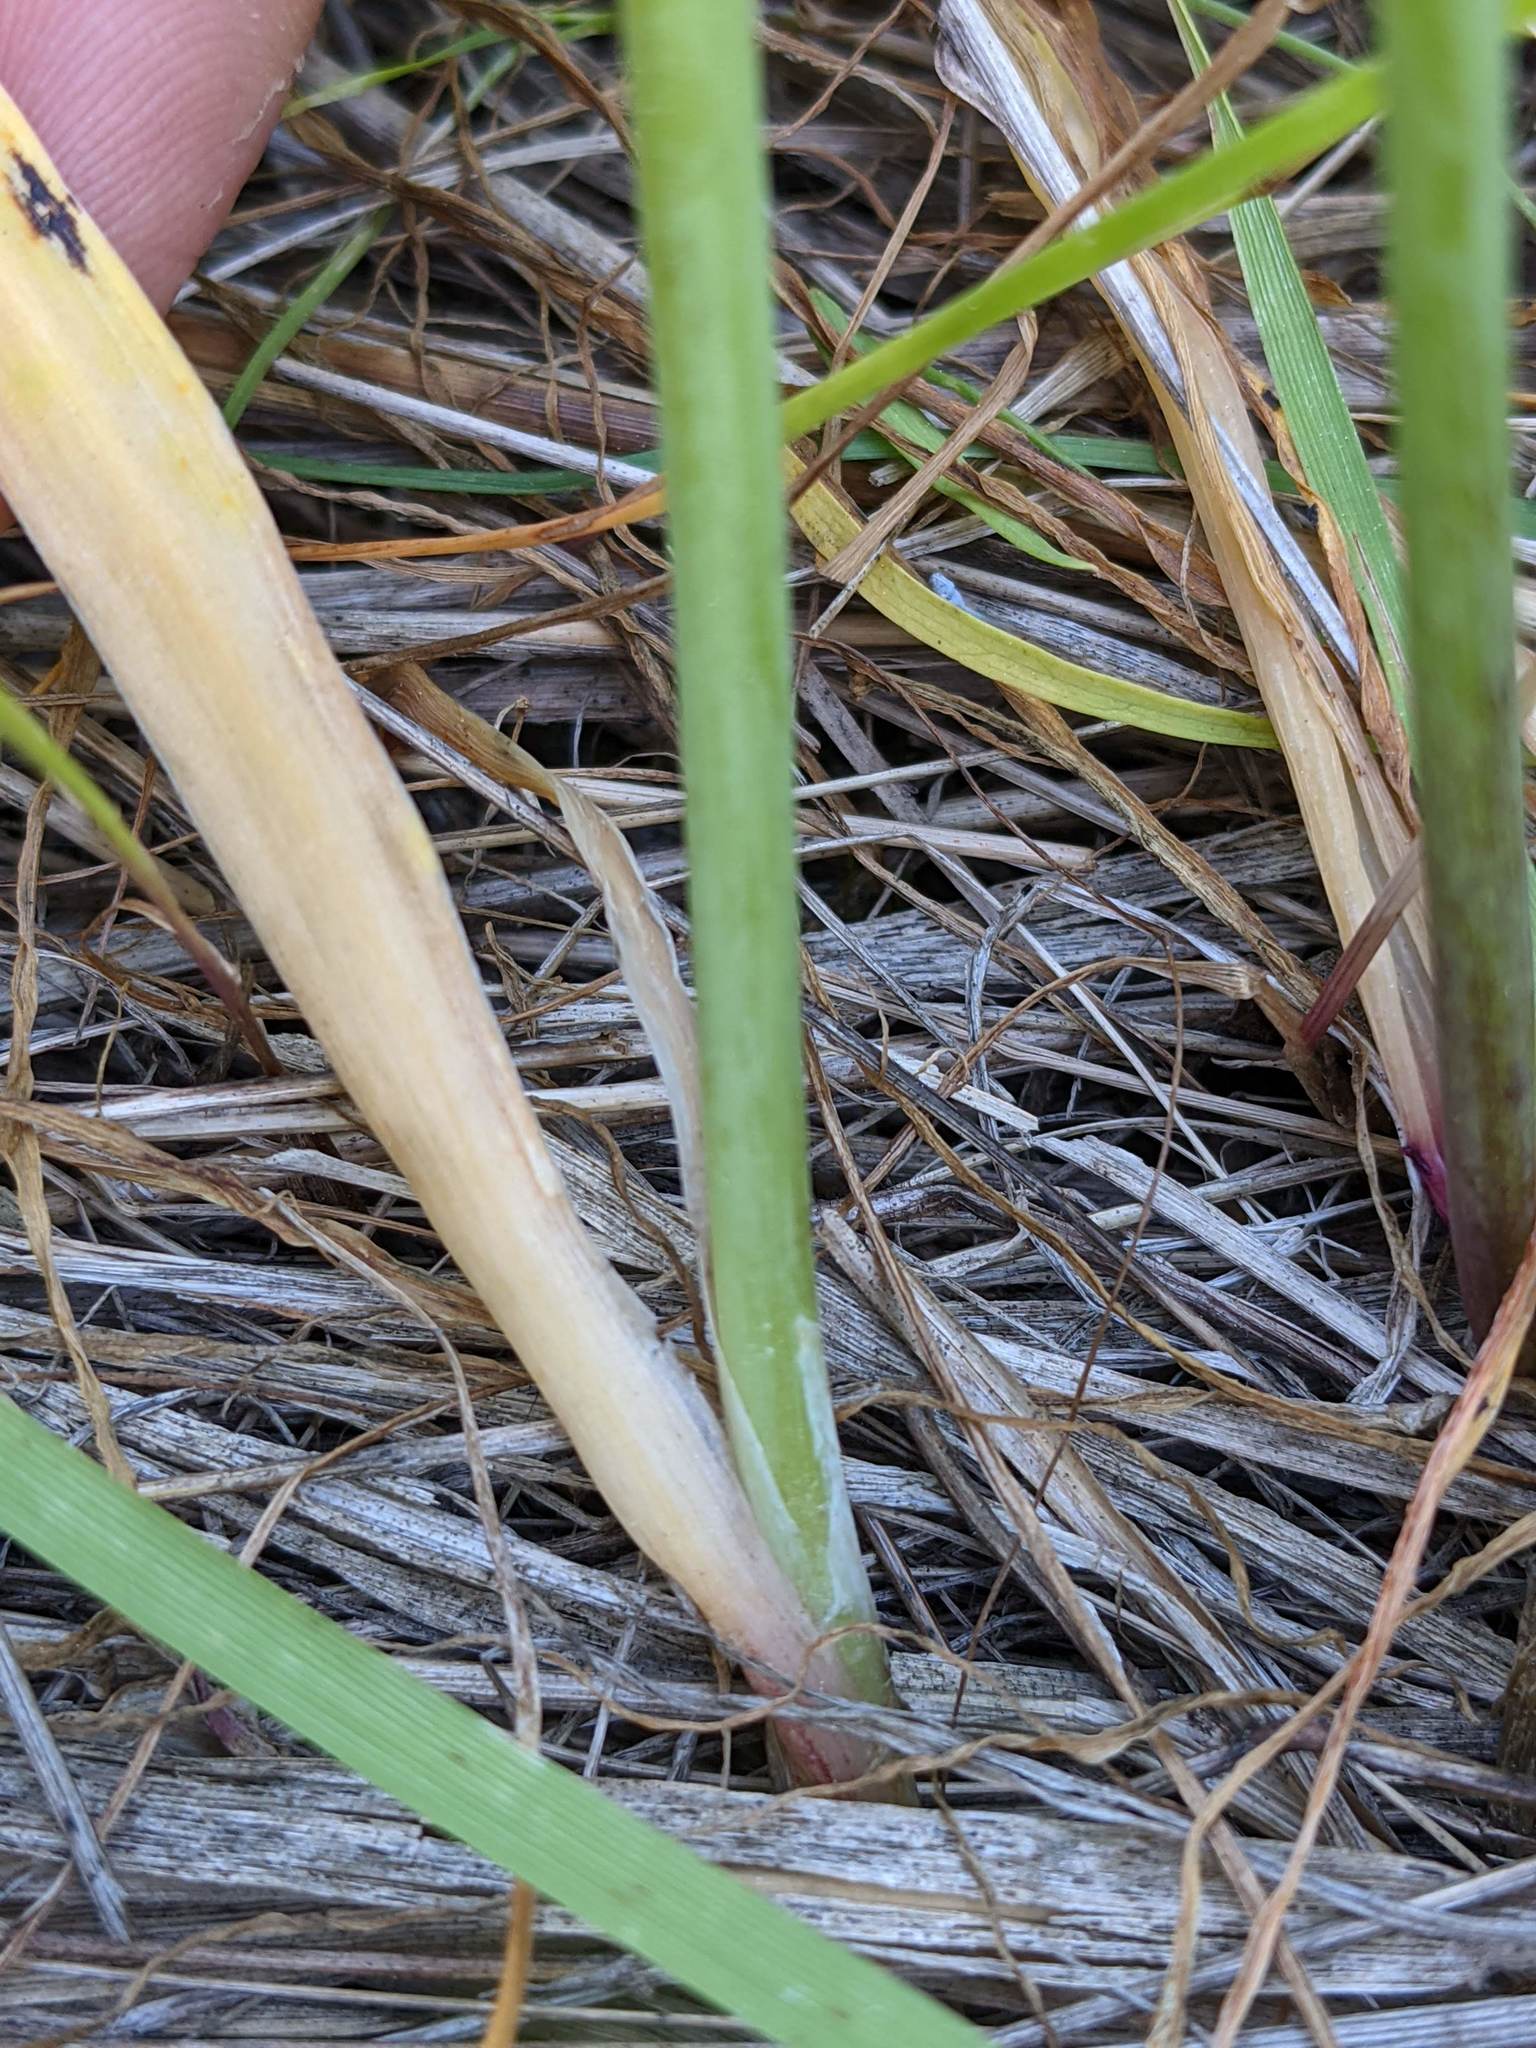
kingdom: Plantae
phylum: Tracheophyta
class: Liliopsida
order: Asparagales
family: Amaryllidaceae
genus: Allium
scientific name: Allium unifolium
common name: American garlic
